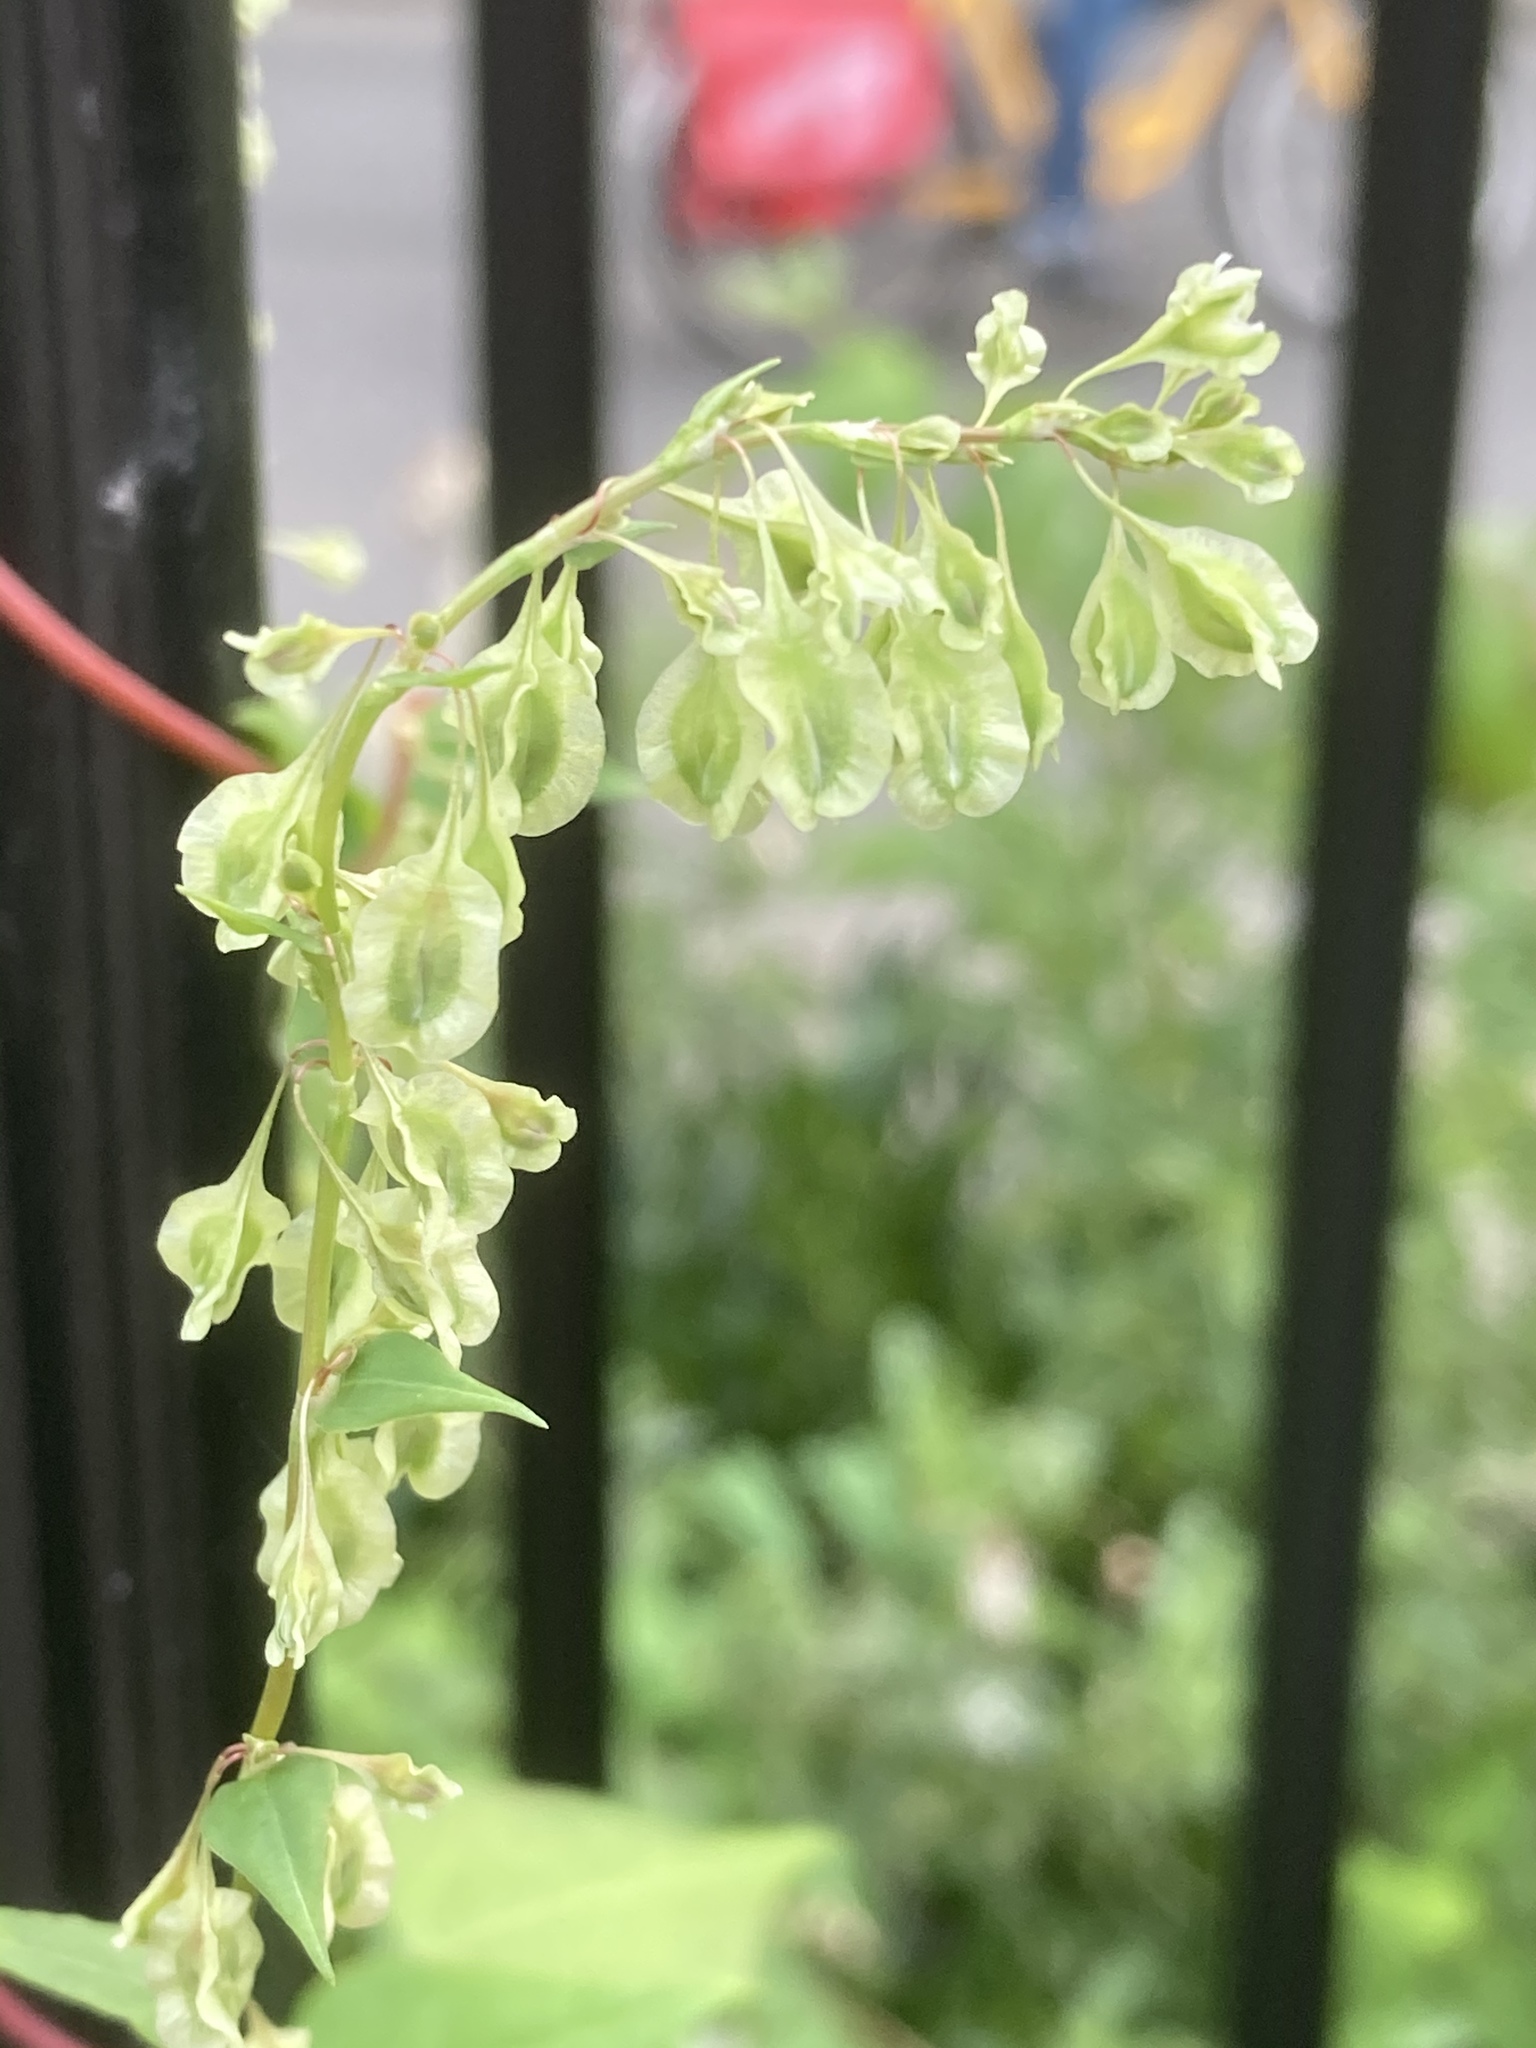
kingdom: Plantae
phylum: Tracheophyta
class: Magnoliopsida
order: Caryophyllales
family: Polygonaceae
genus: Fallopia
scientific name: Fallopia dumetorum
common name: Copse-bindweed
